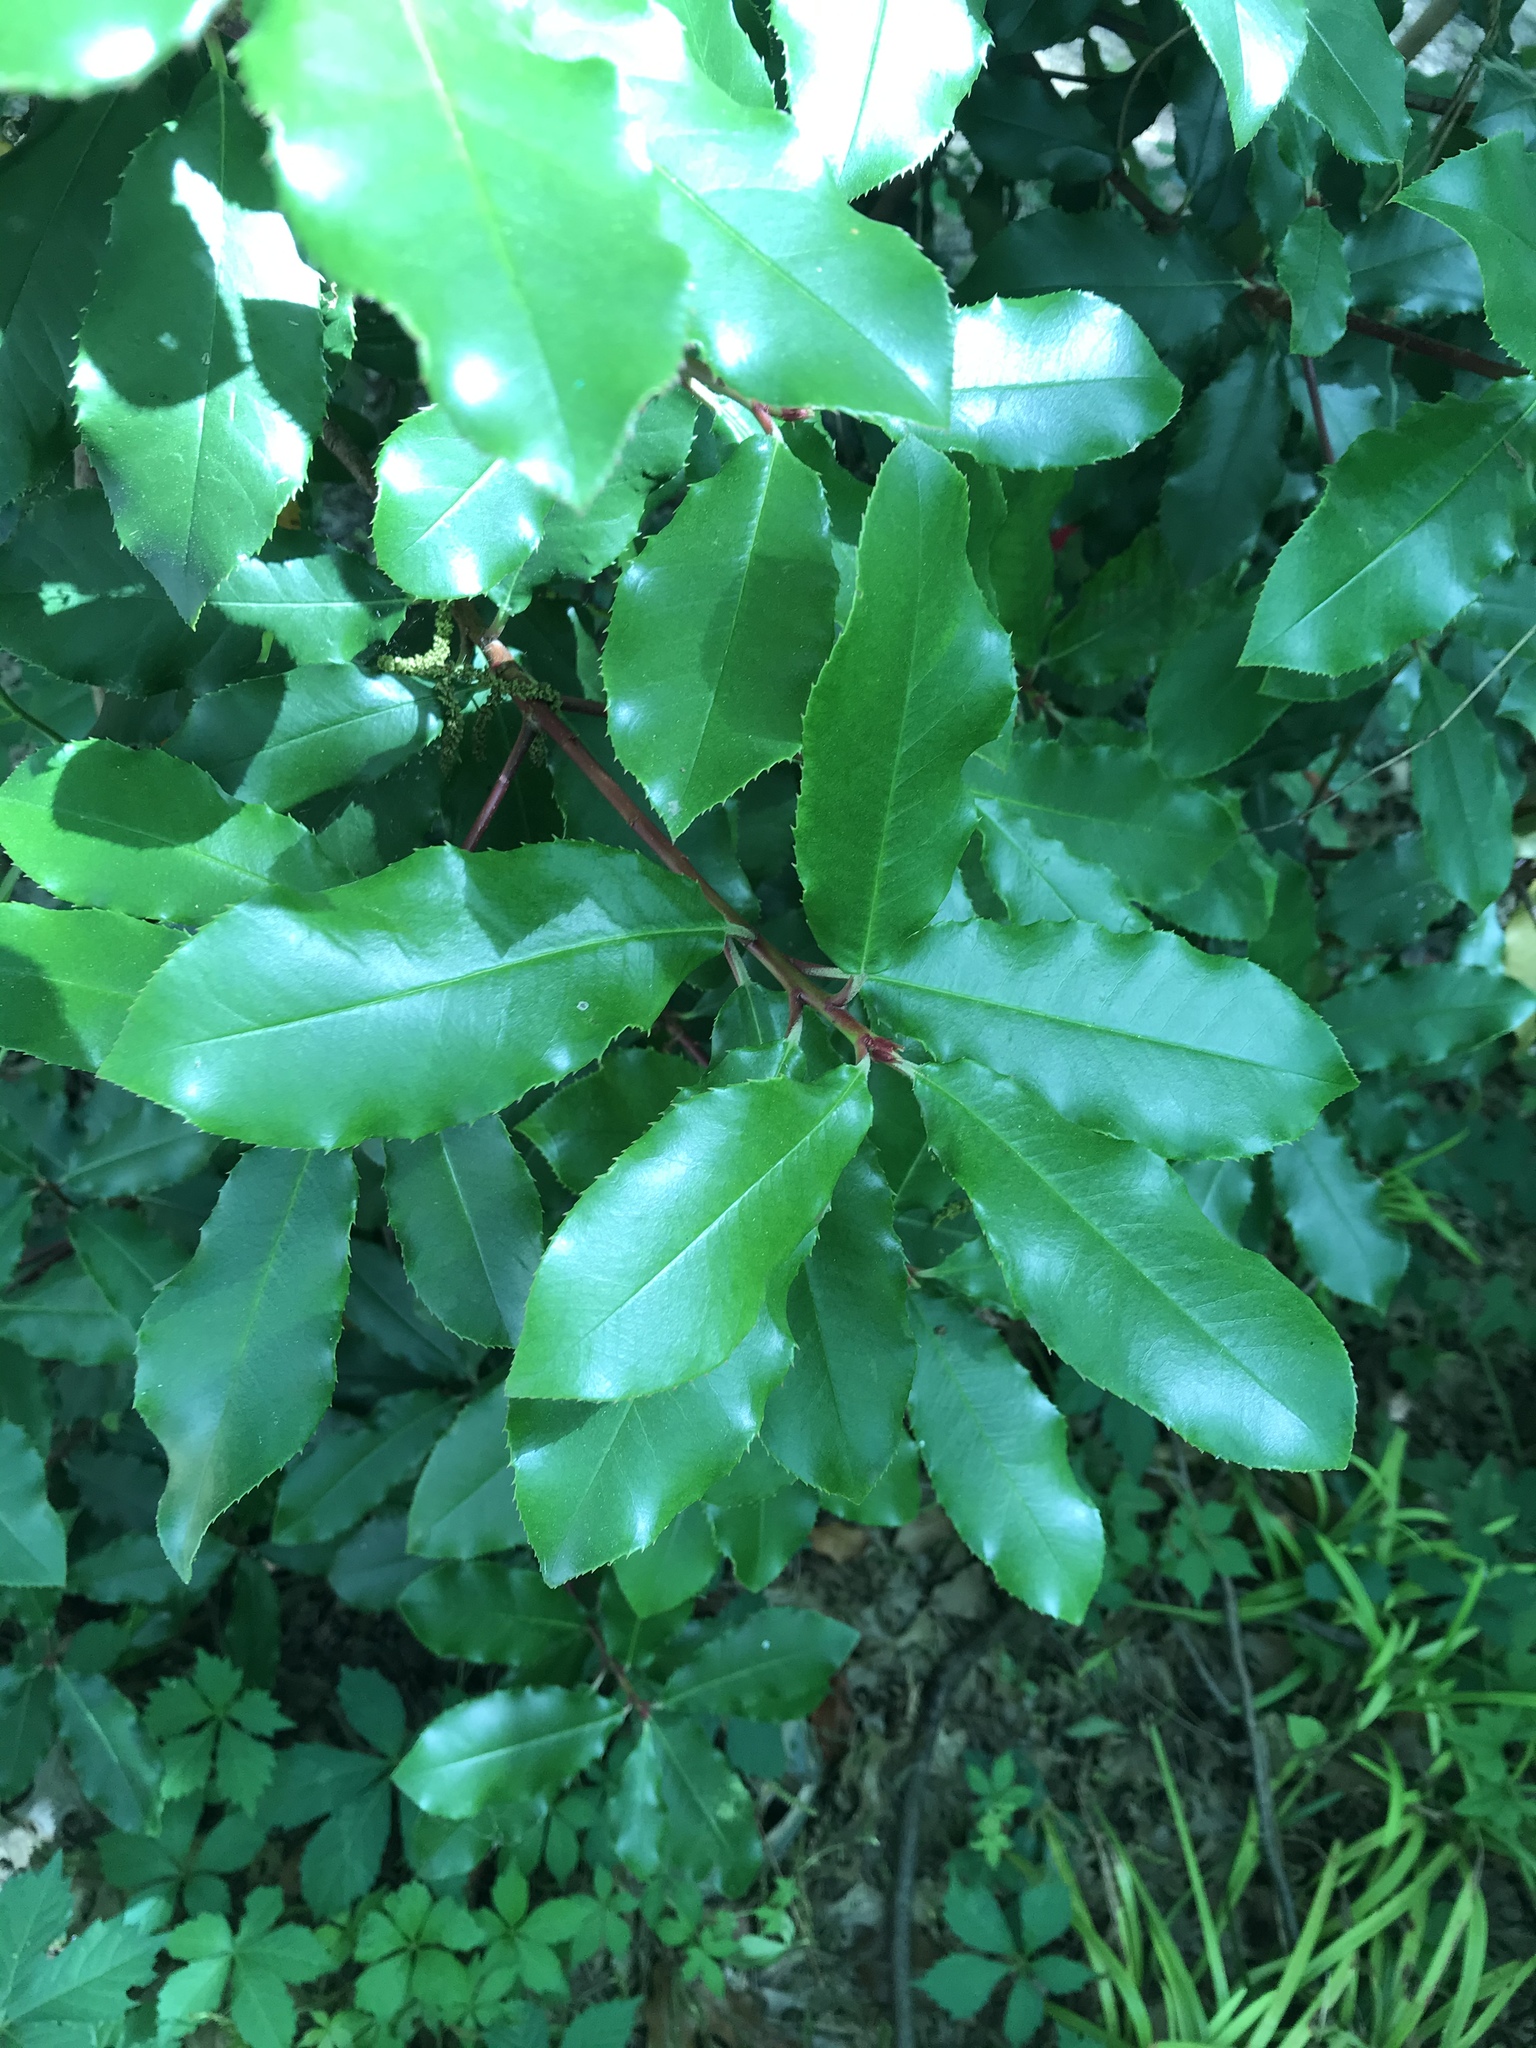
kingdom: Plantae
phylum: Tracheophyta
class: Magnoliopsida
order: Rosales
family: Rosaceae
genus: Photinia
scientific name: Photinia serratifolia
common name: Taiwanese photinia
